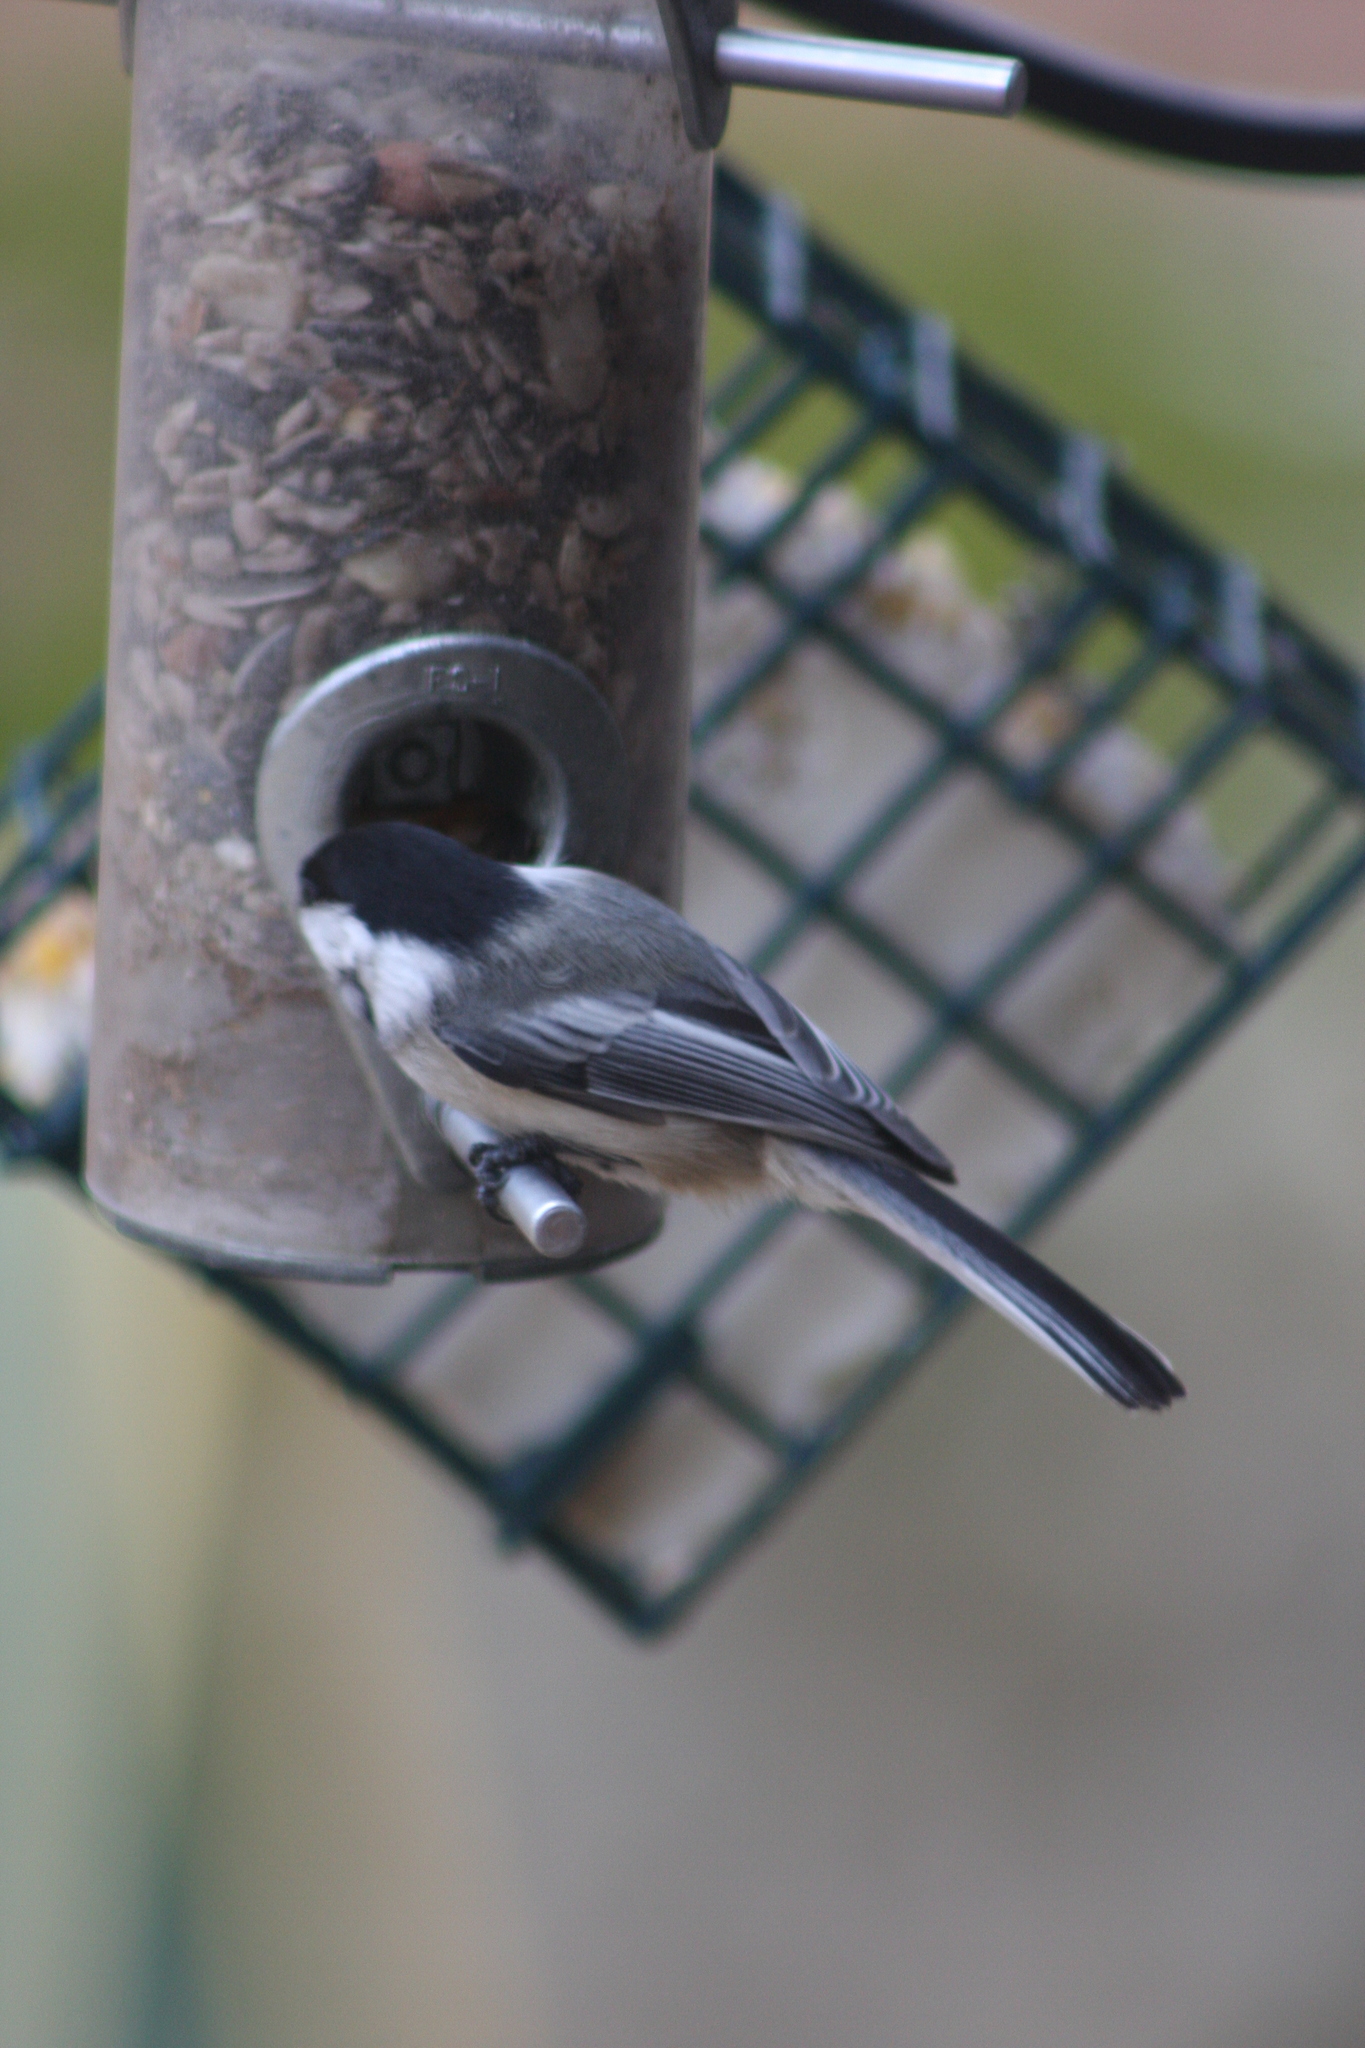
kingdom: Animalia
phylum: Chordata
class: Aves
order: Passeriformes
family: Paridae
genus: Poecile
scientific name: Poecile atricapillus
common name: Black-capped chickadee
